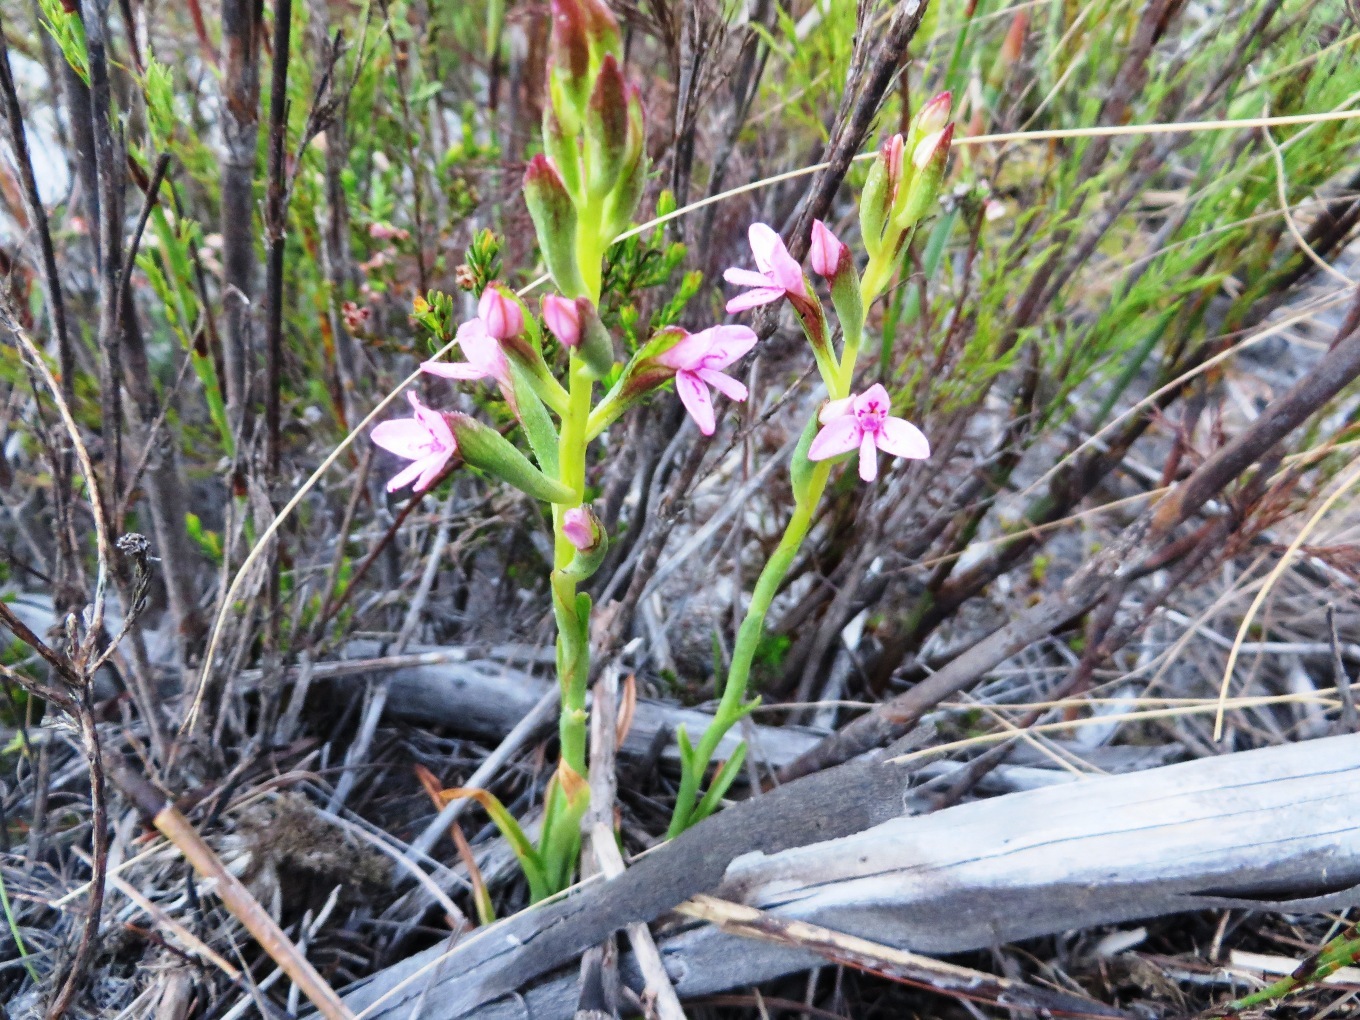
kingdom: Plantae
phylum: Tracheophyta
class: Liliopsida
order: Asparagales
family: Orchidaceae
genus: Disa
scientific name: Disa vaginata
